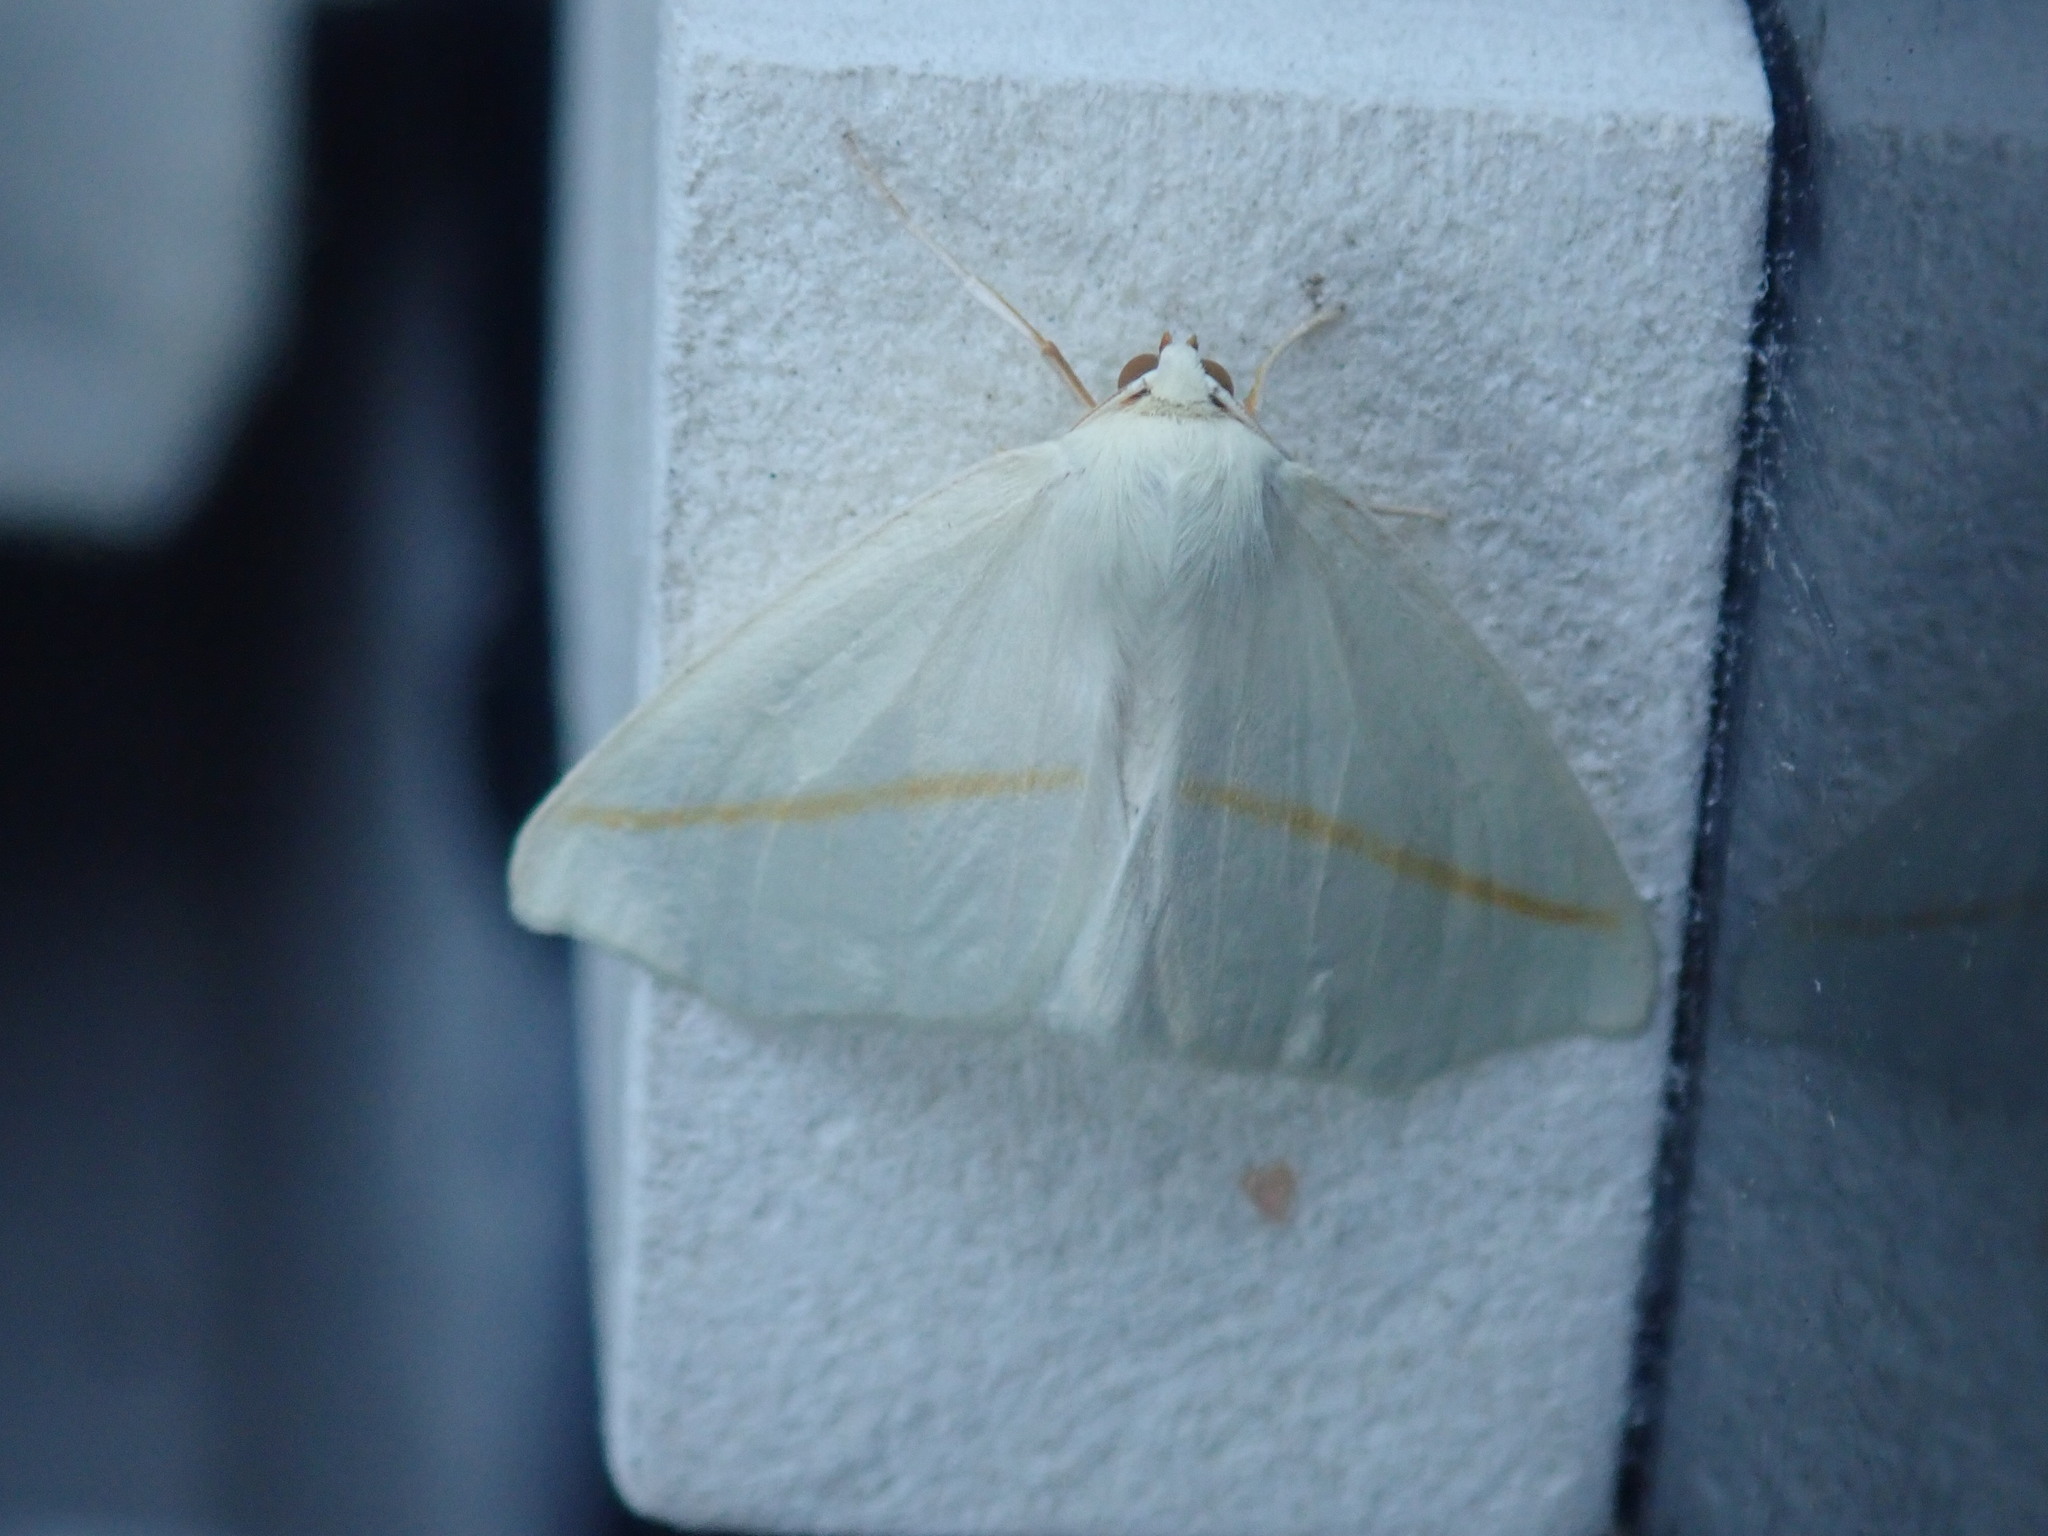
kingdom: Animalia
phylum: Arthropoda
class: Insecta
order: Lepidoptera
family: Geometridae
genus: Tetracis
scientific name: Tetracis cachexiata
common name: White slant-line
